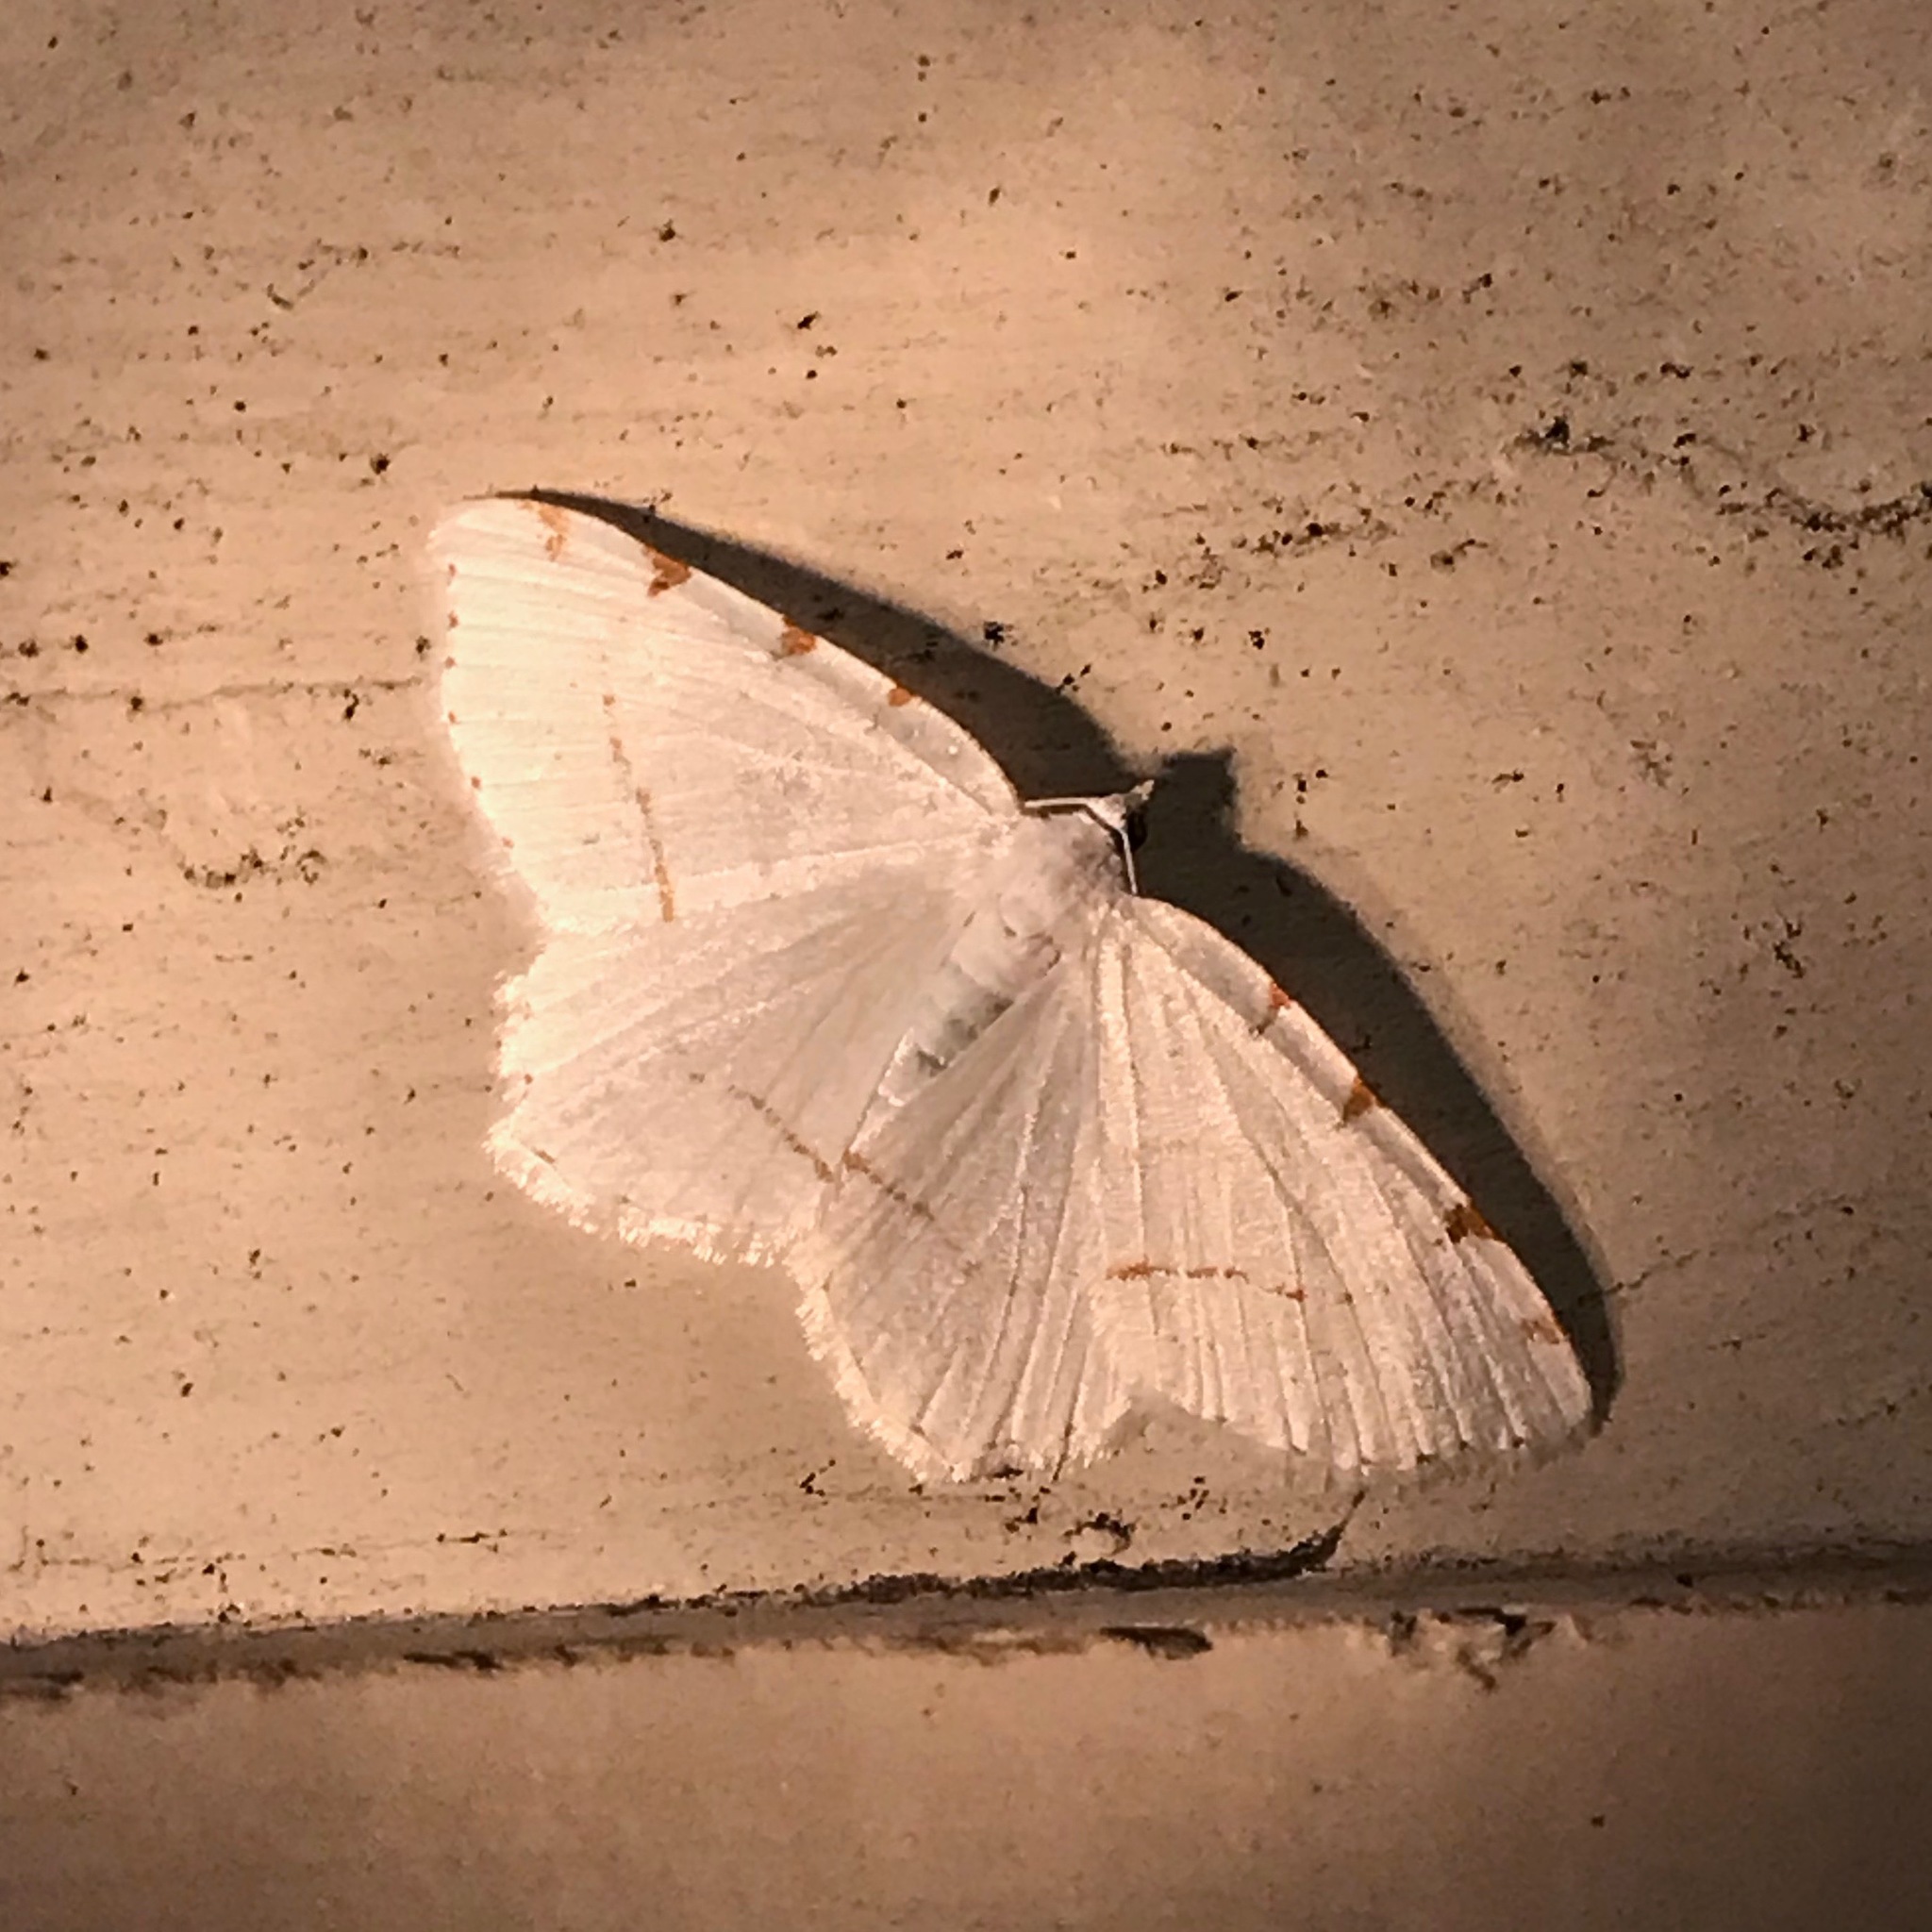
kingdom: Animalia
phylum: Arthropoda
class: Insecta
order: Lepidoptera
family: Geometridae
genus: Macaria
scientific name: Macaria pustularia
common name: Lesser maple spanworm moth
